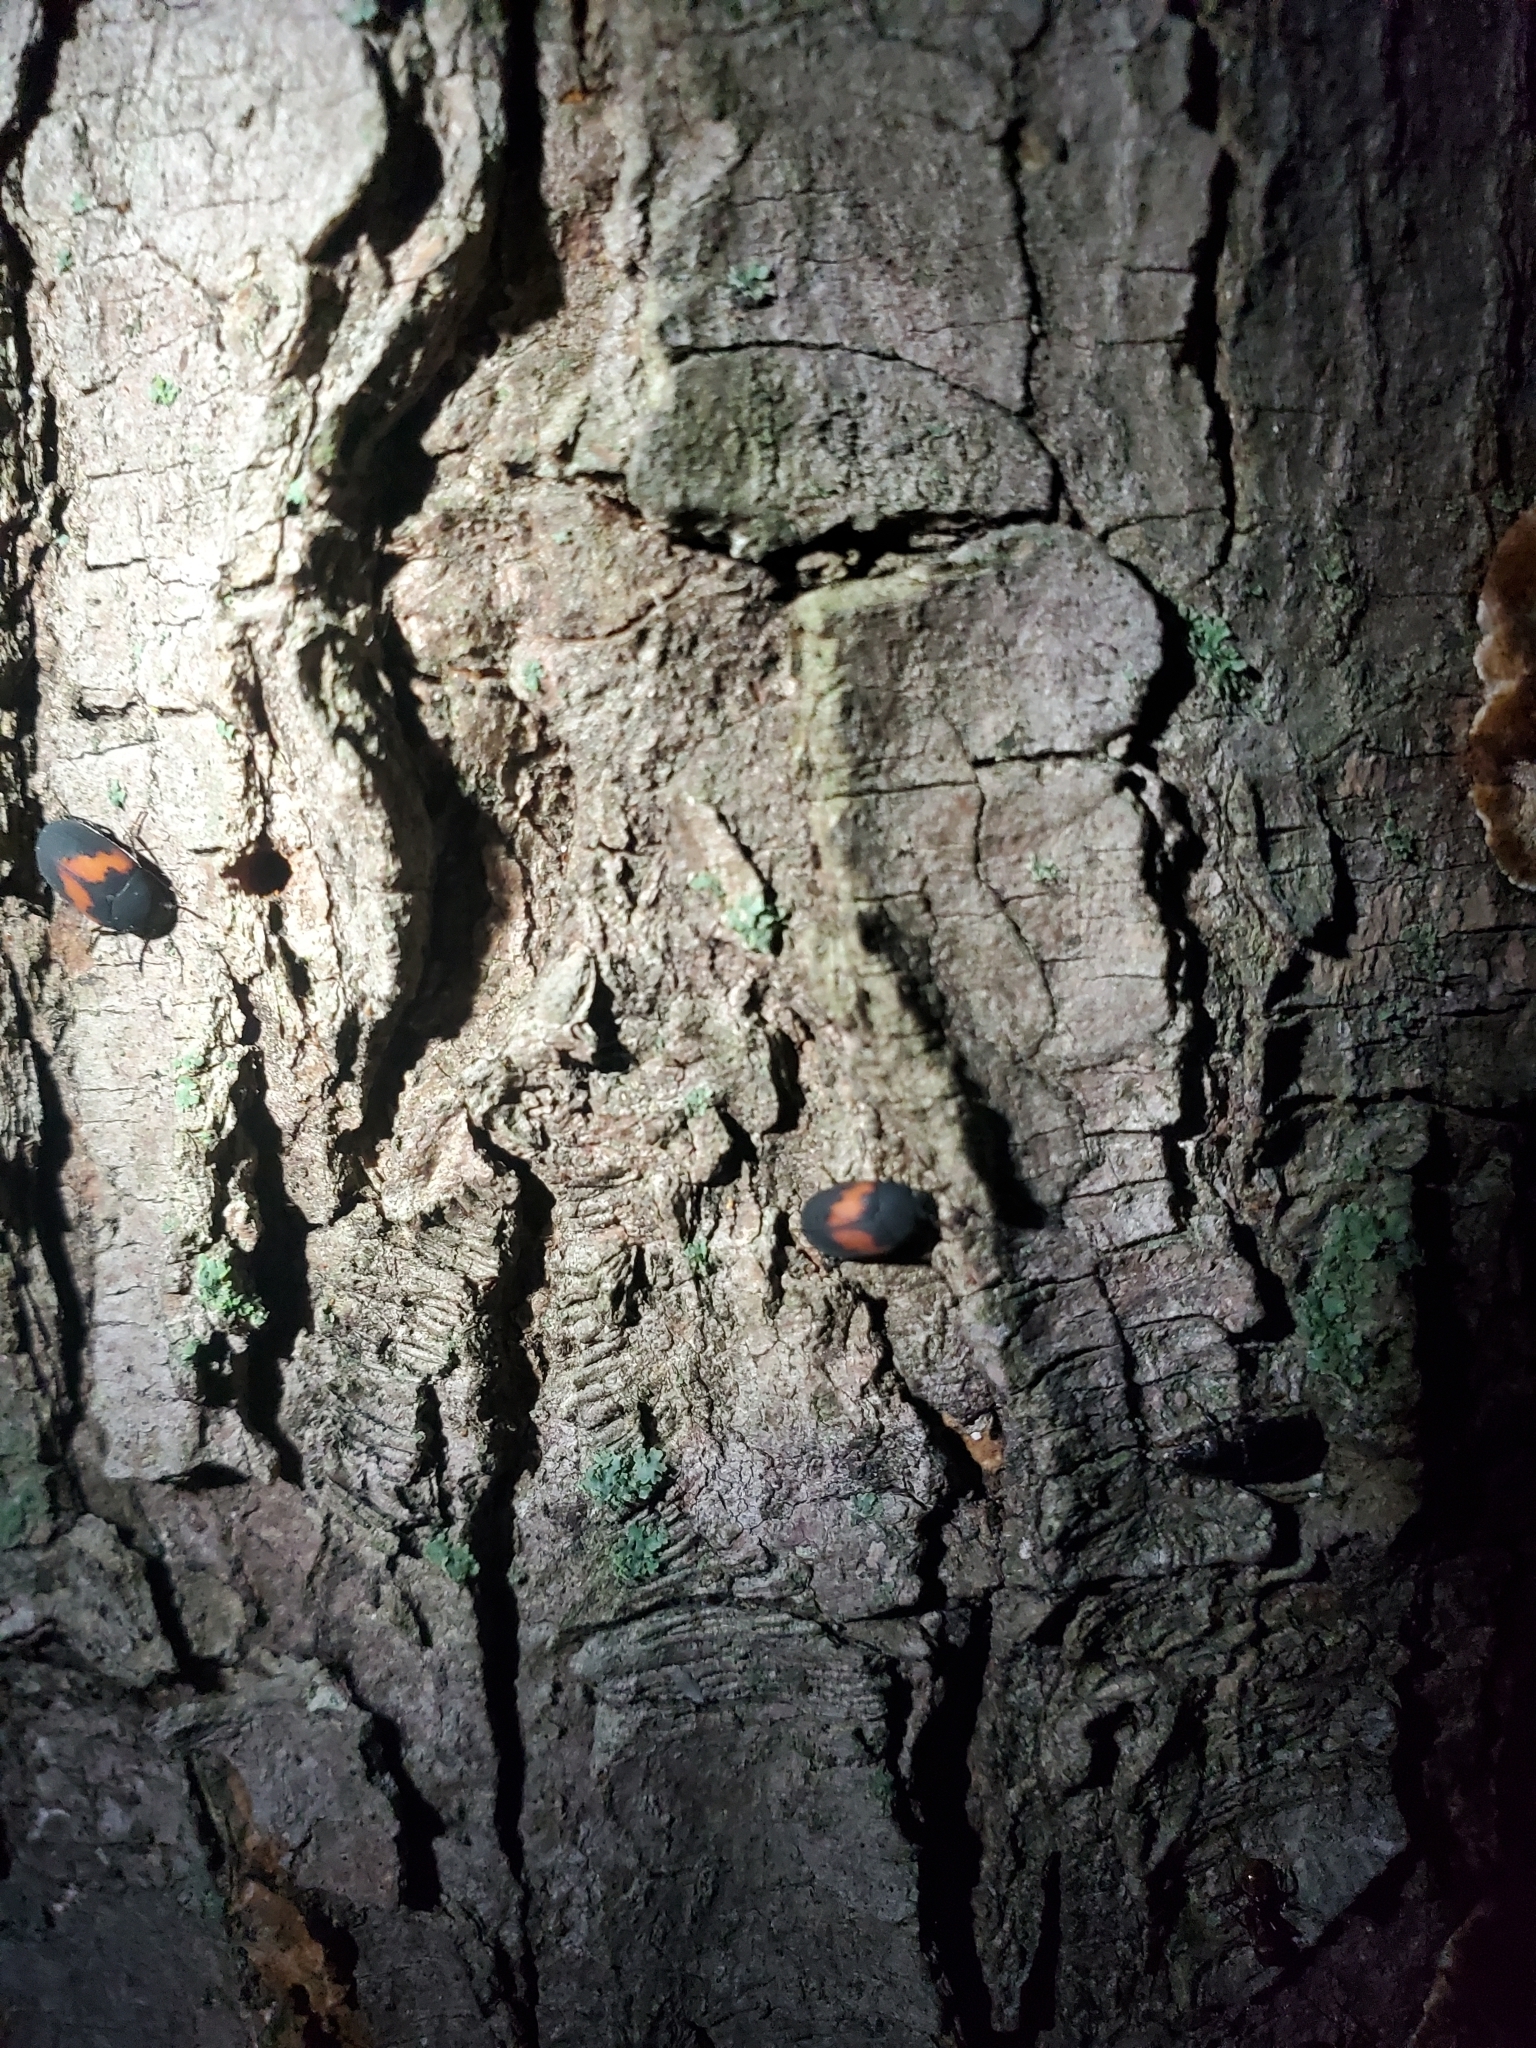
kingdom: Animalia
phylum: Arthropoda
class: Insecta
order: Coleoptera
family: Tenebrionidae
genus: Platydema
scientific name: Platydema elliptica
